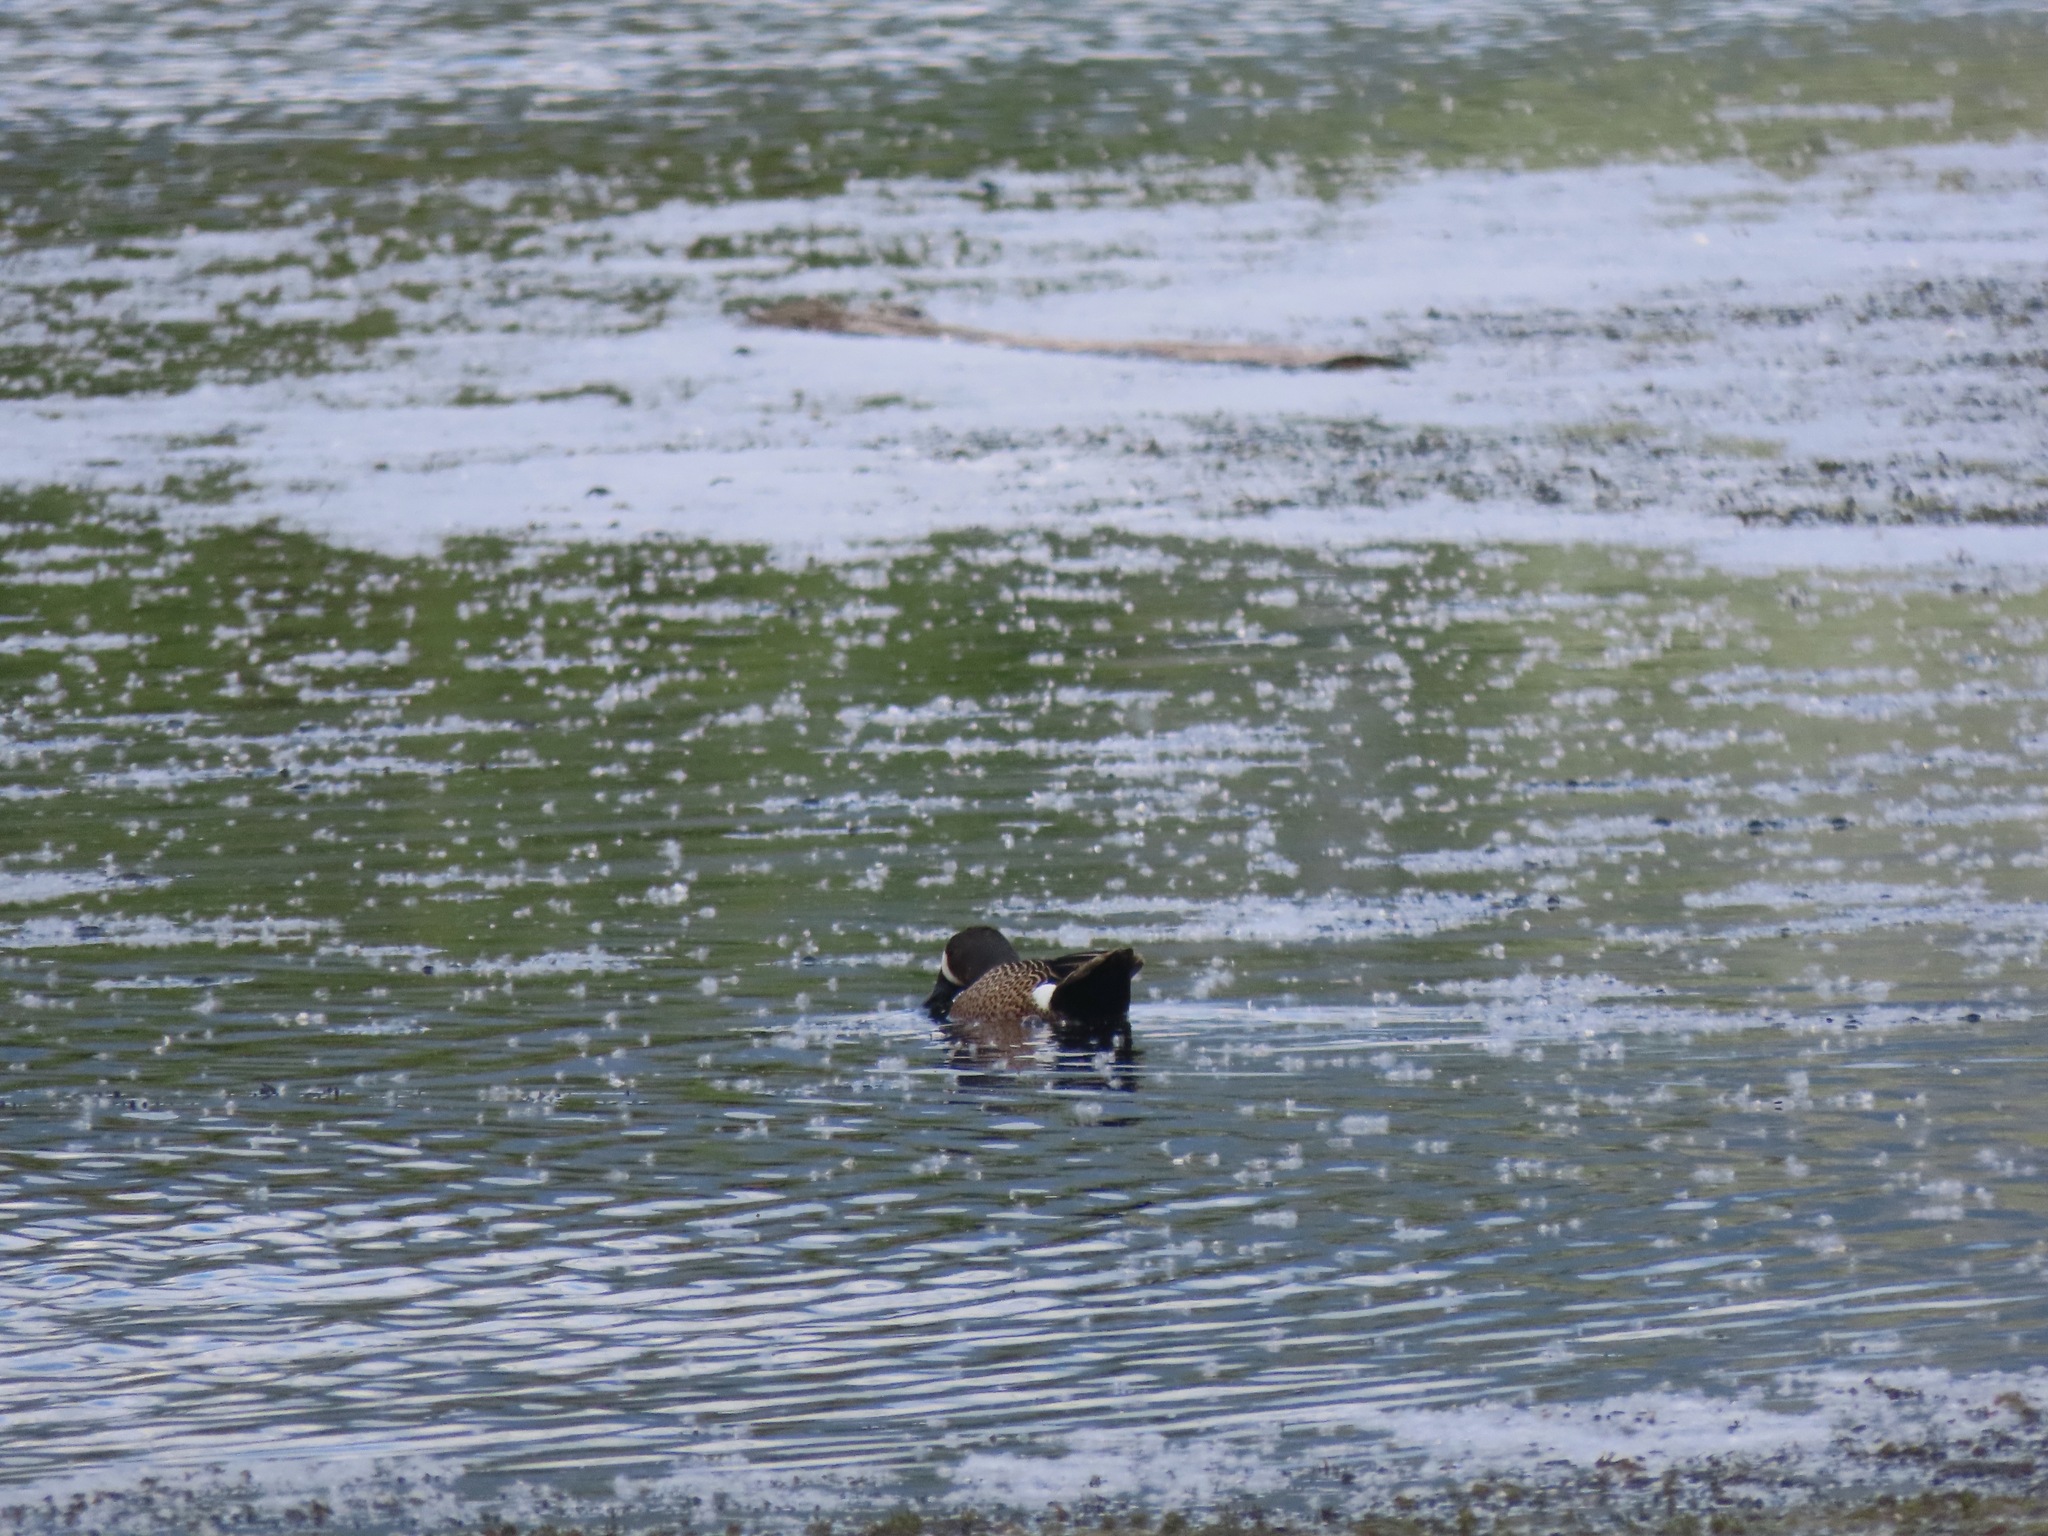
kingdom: Animalia
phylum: Chordata
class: Aves
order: Anseriformes
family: Anatidae
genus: Spatula
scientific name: Spatula discors
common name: Blue-winged teal
